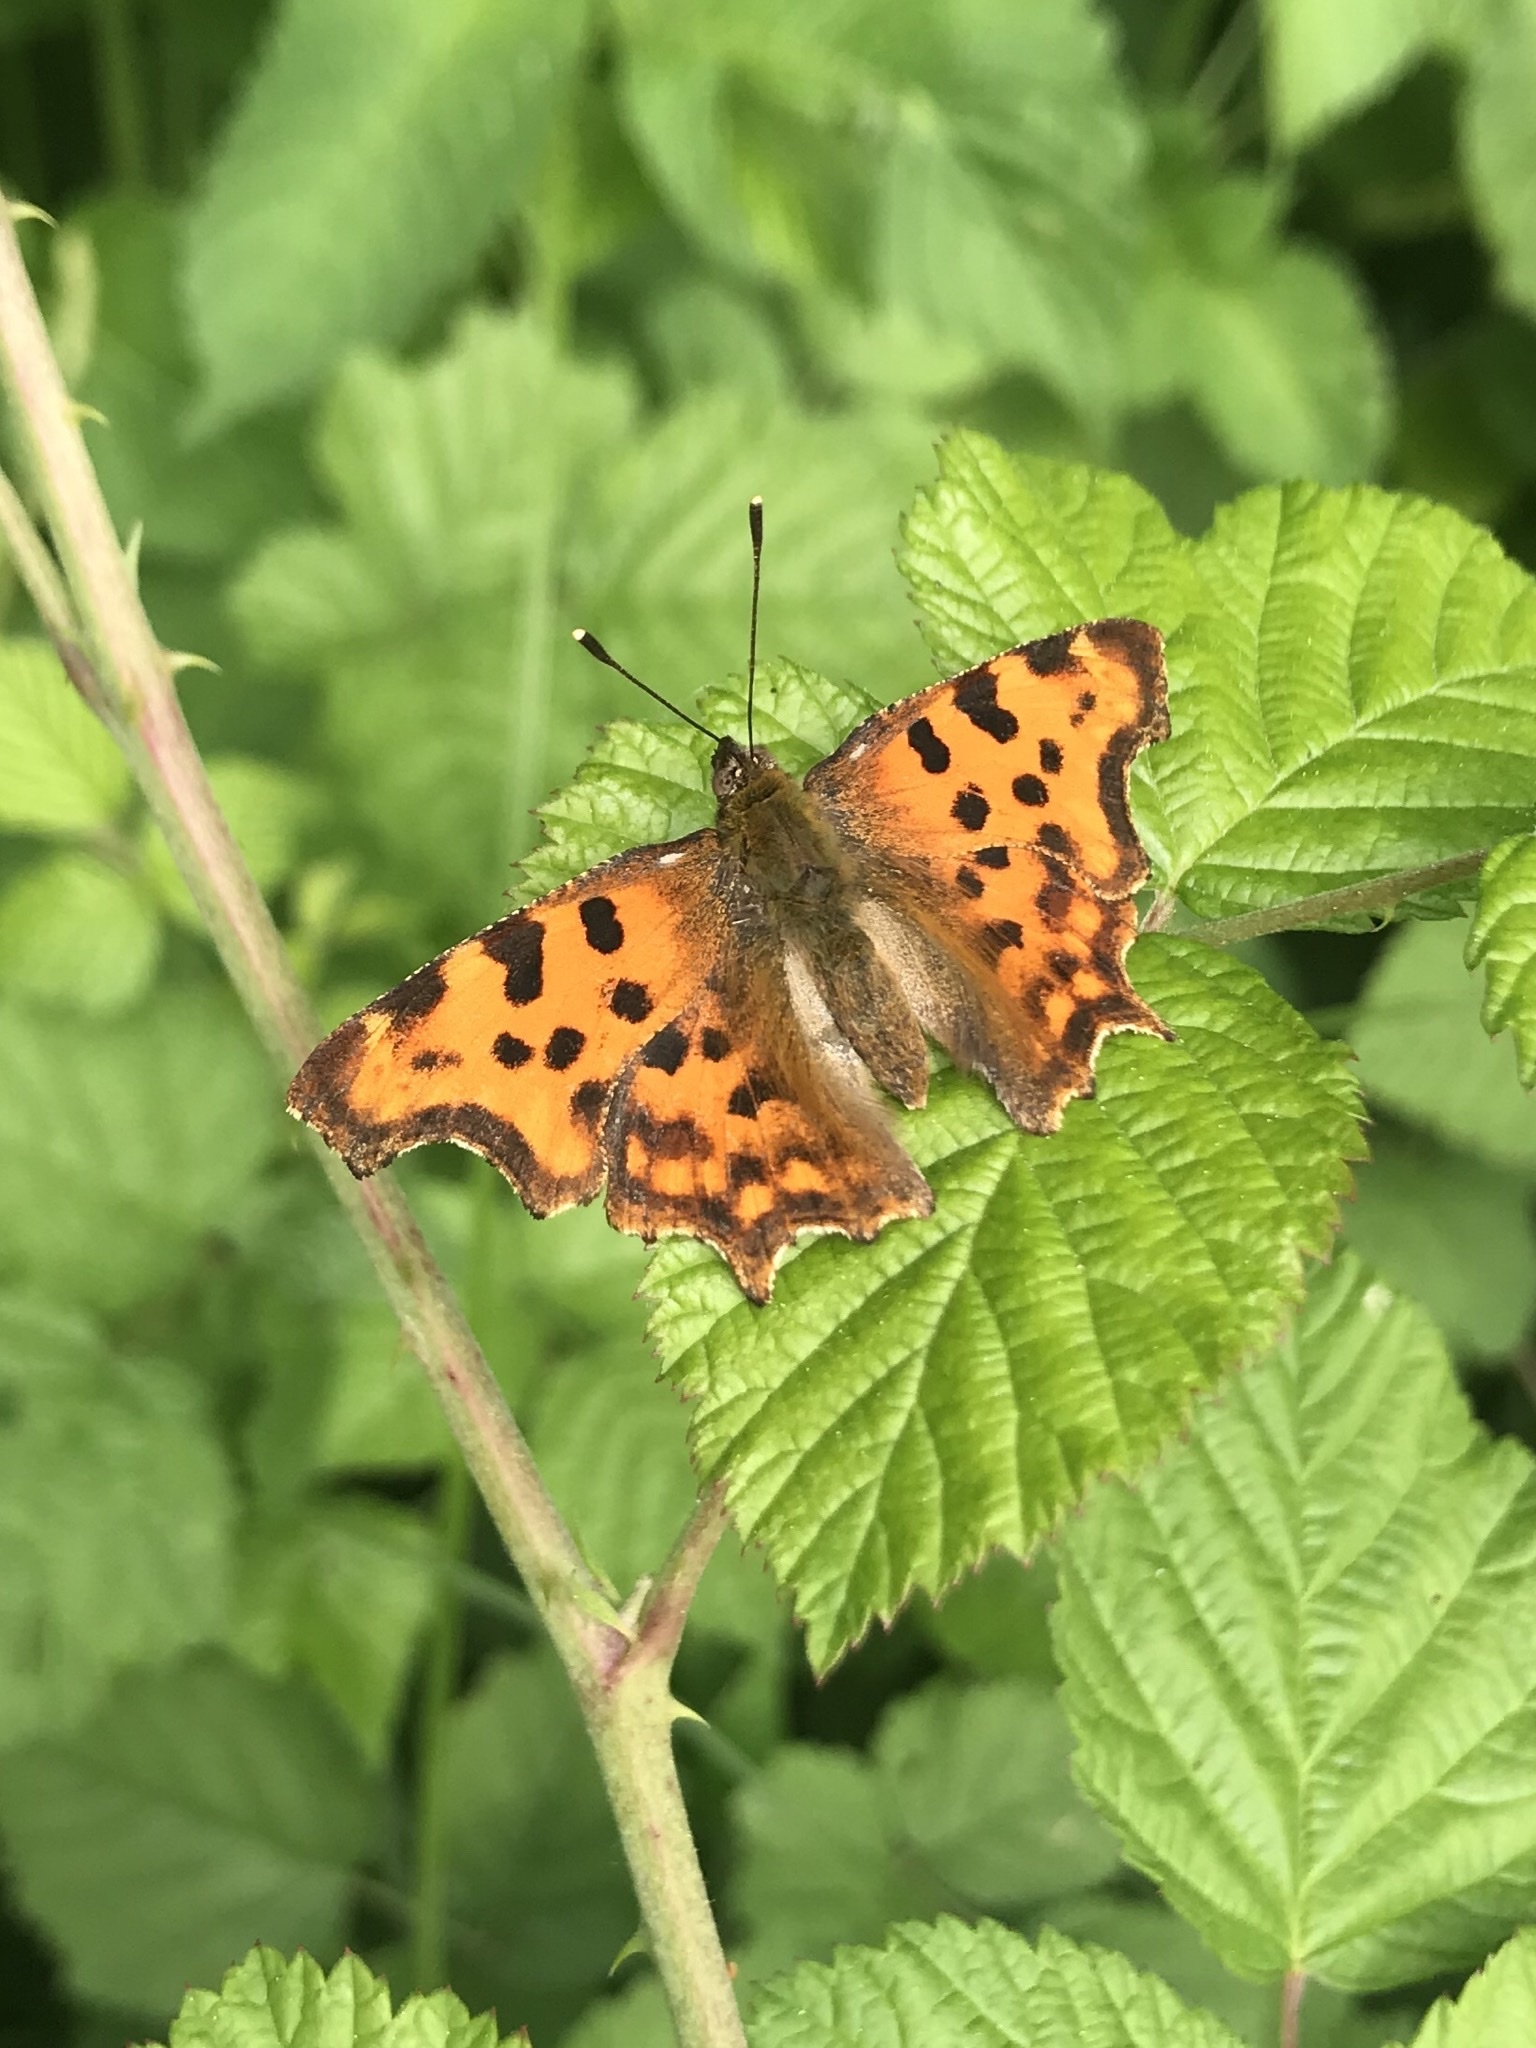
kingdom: Animalia
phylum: Arthropoda
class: Insecta
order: Lepidoptera
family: Nymphalidae
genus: Polygonia
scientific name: Polygonia c-album
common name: Comma
